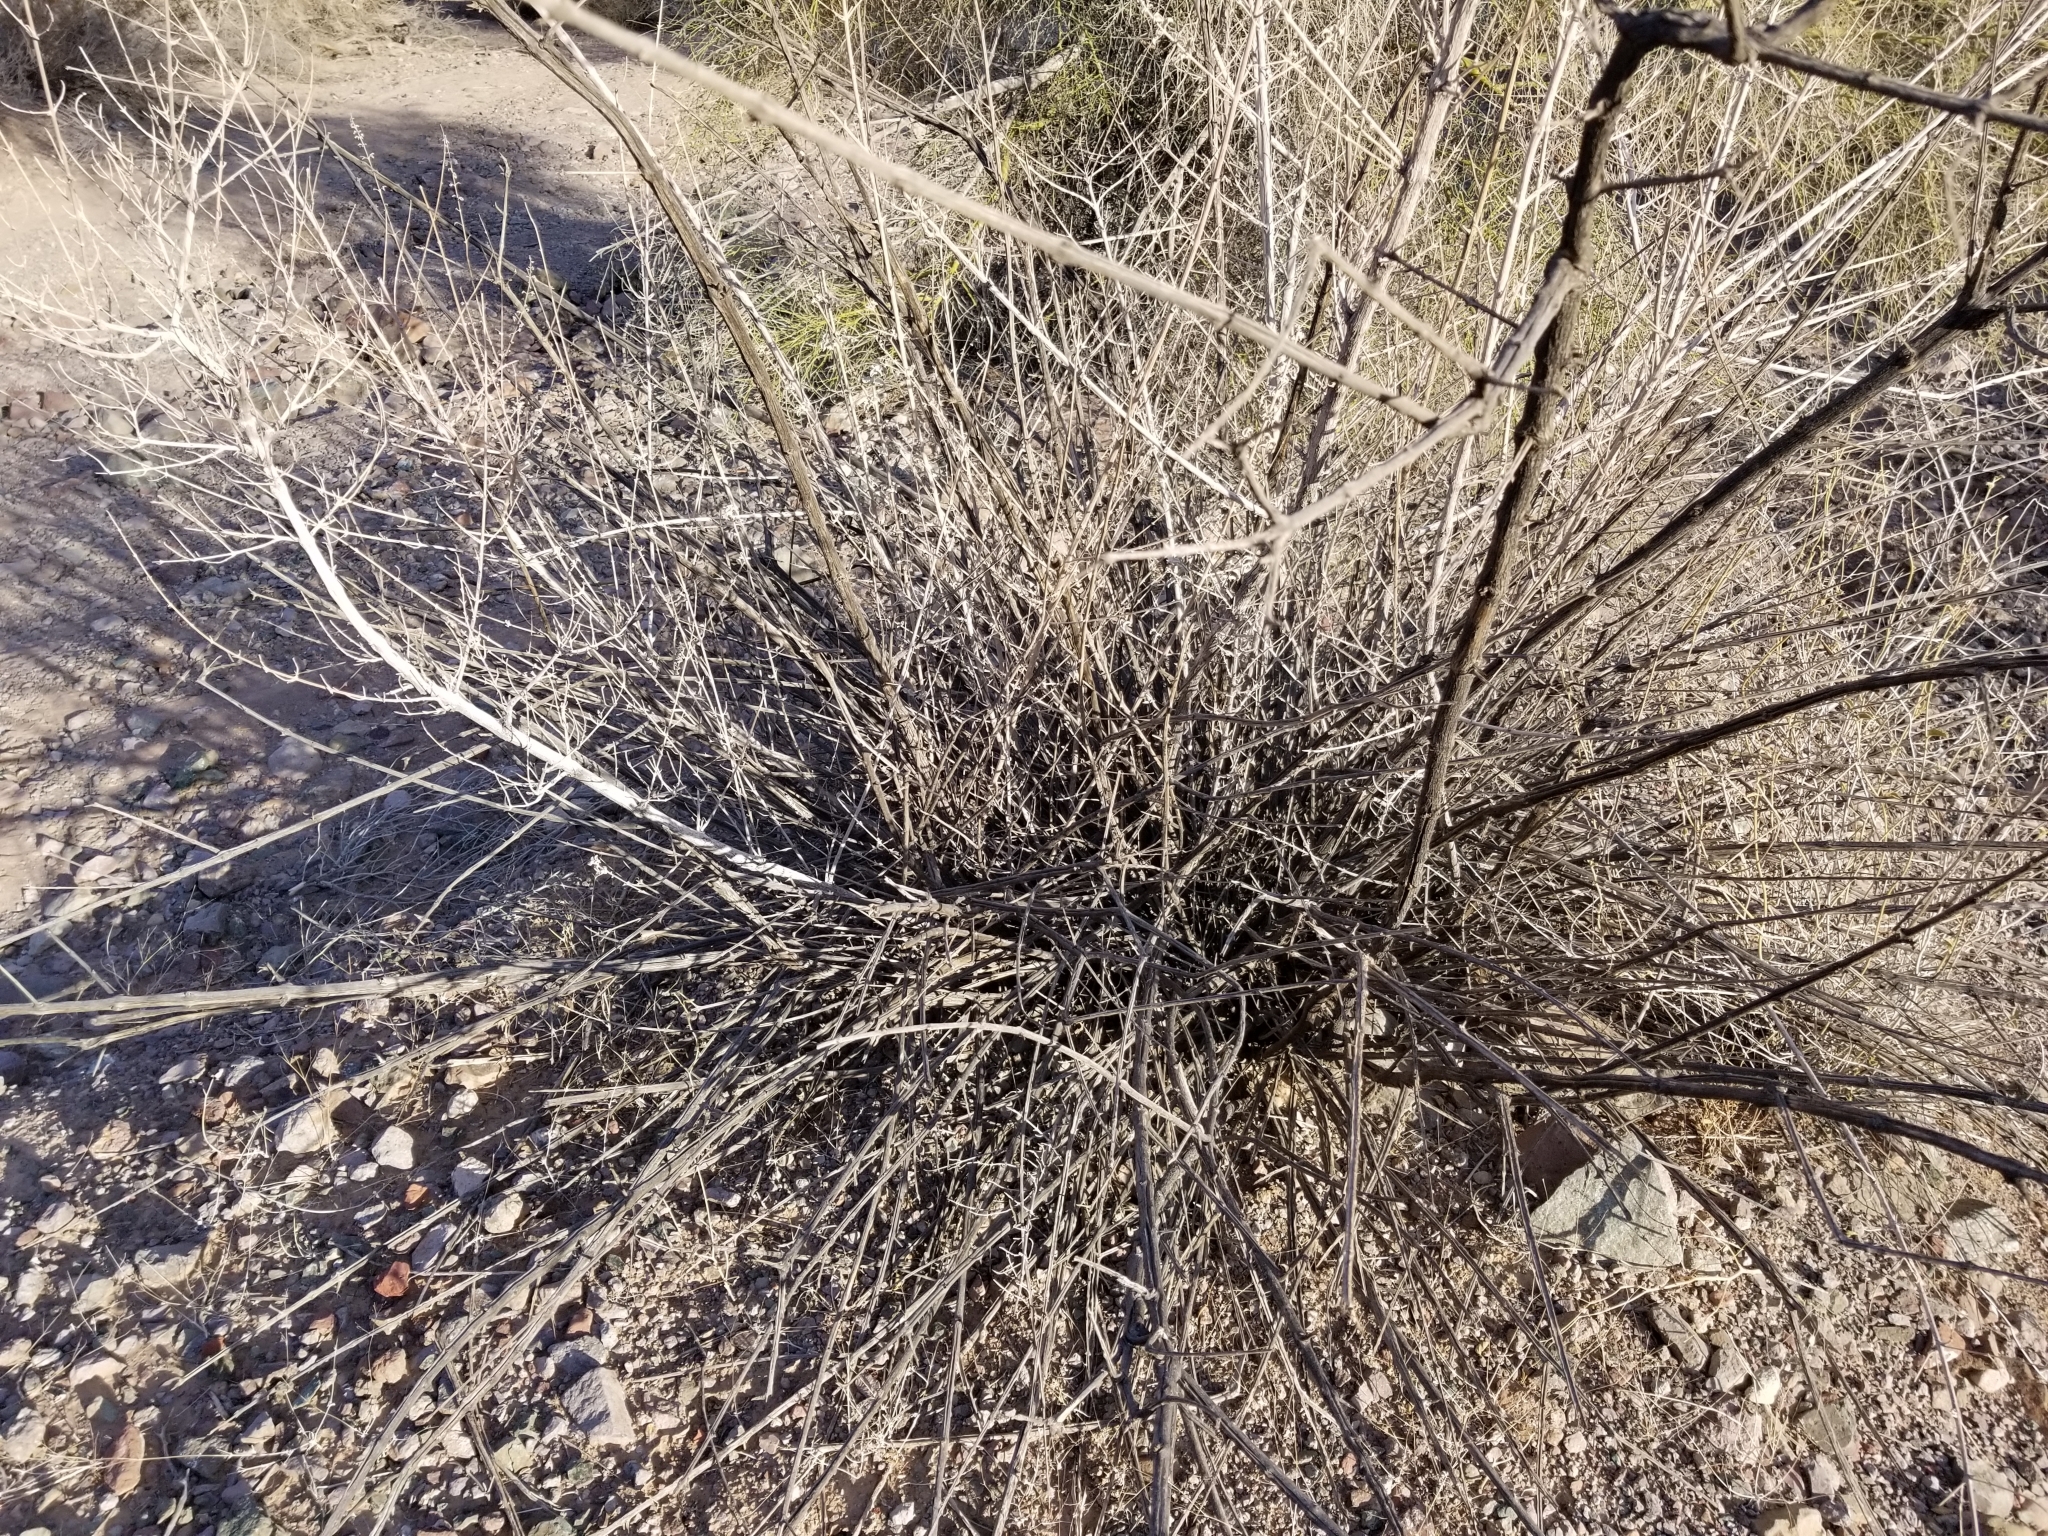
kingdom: Plantae
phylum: Tracheophyta
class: Magnoliopsida
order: Lamiales
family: Lamiaceae
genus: Condea
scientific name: Condea emoryi
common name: Chia
